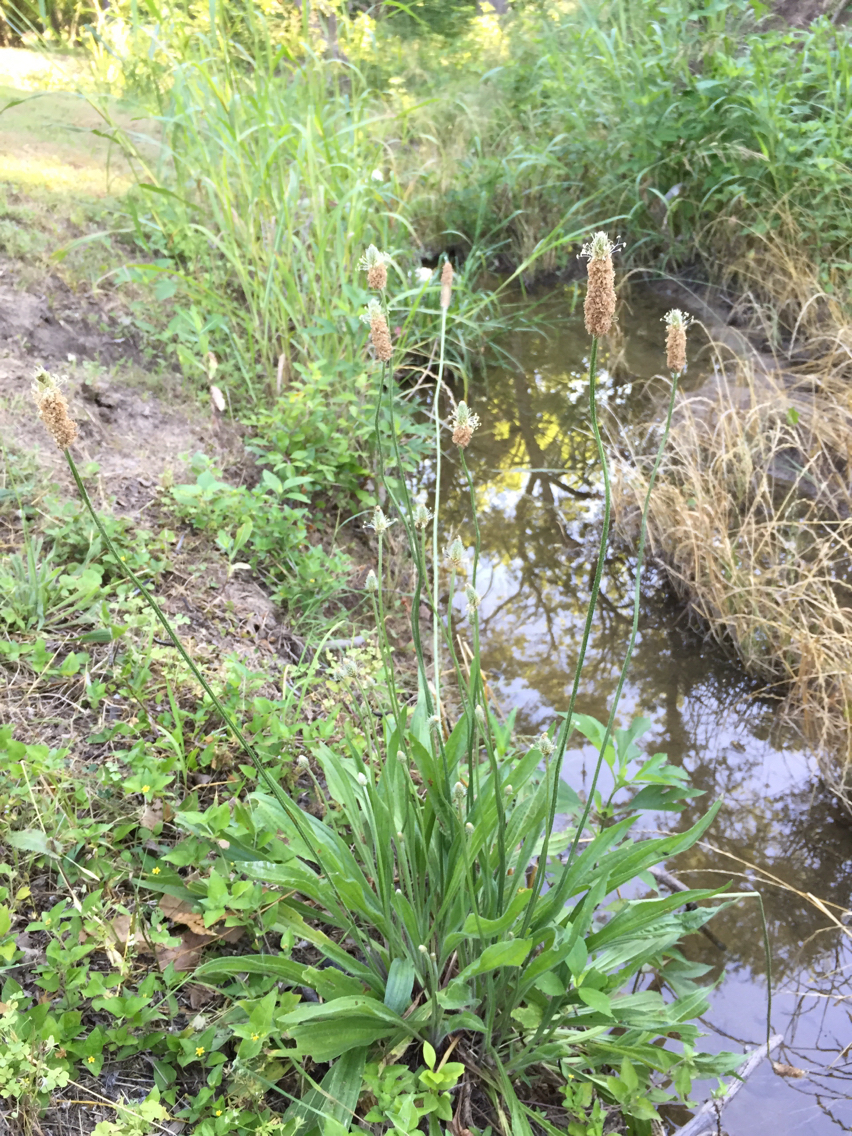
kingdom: Plantae
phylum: Tracheophyta
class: Magnoliopsida
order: Lamiales
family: Plantaginaceae
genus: Plantago
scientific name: Plantago lanceolata
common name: Ribwort plantain
